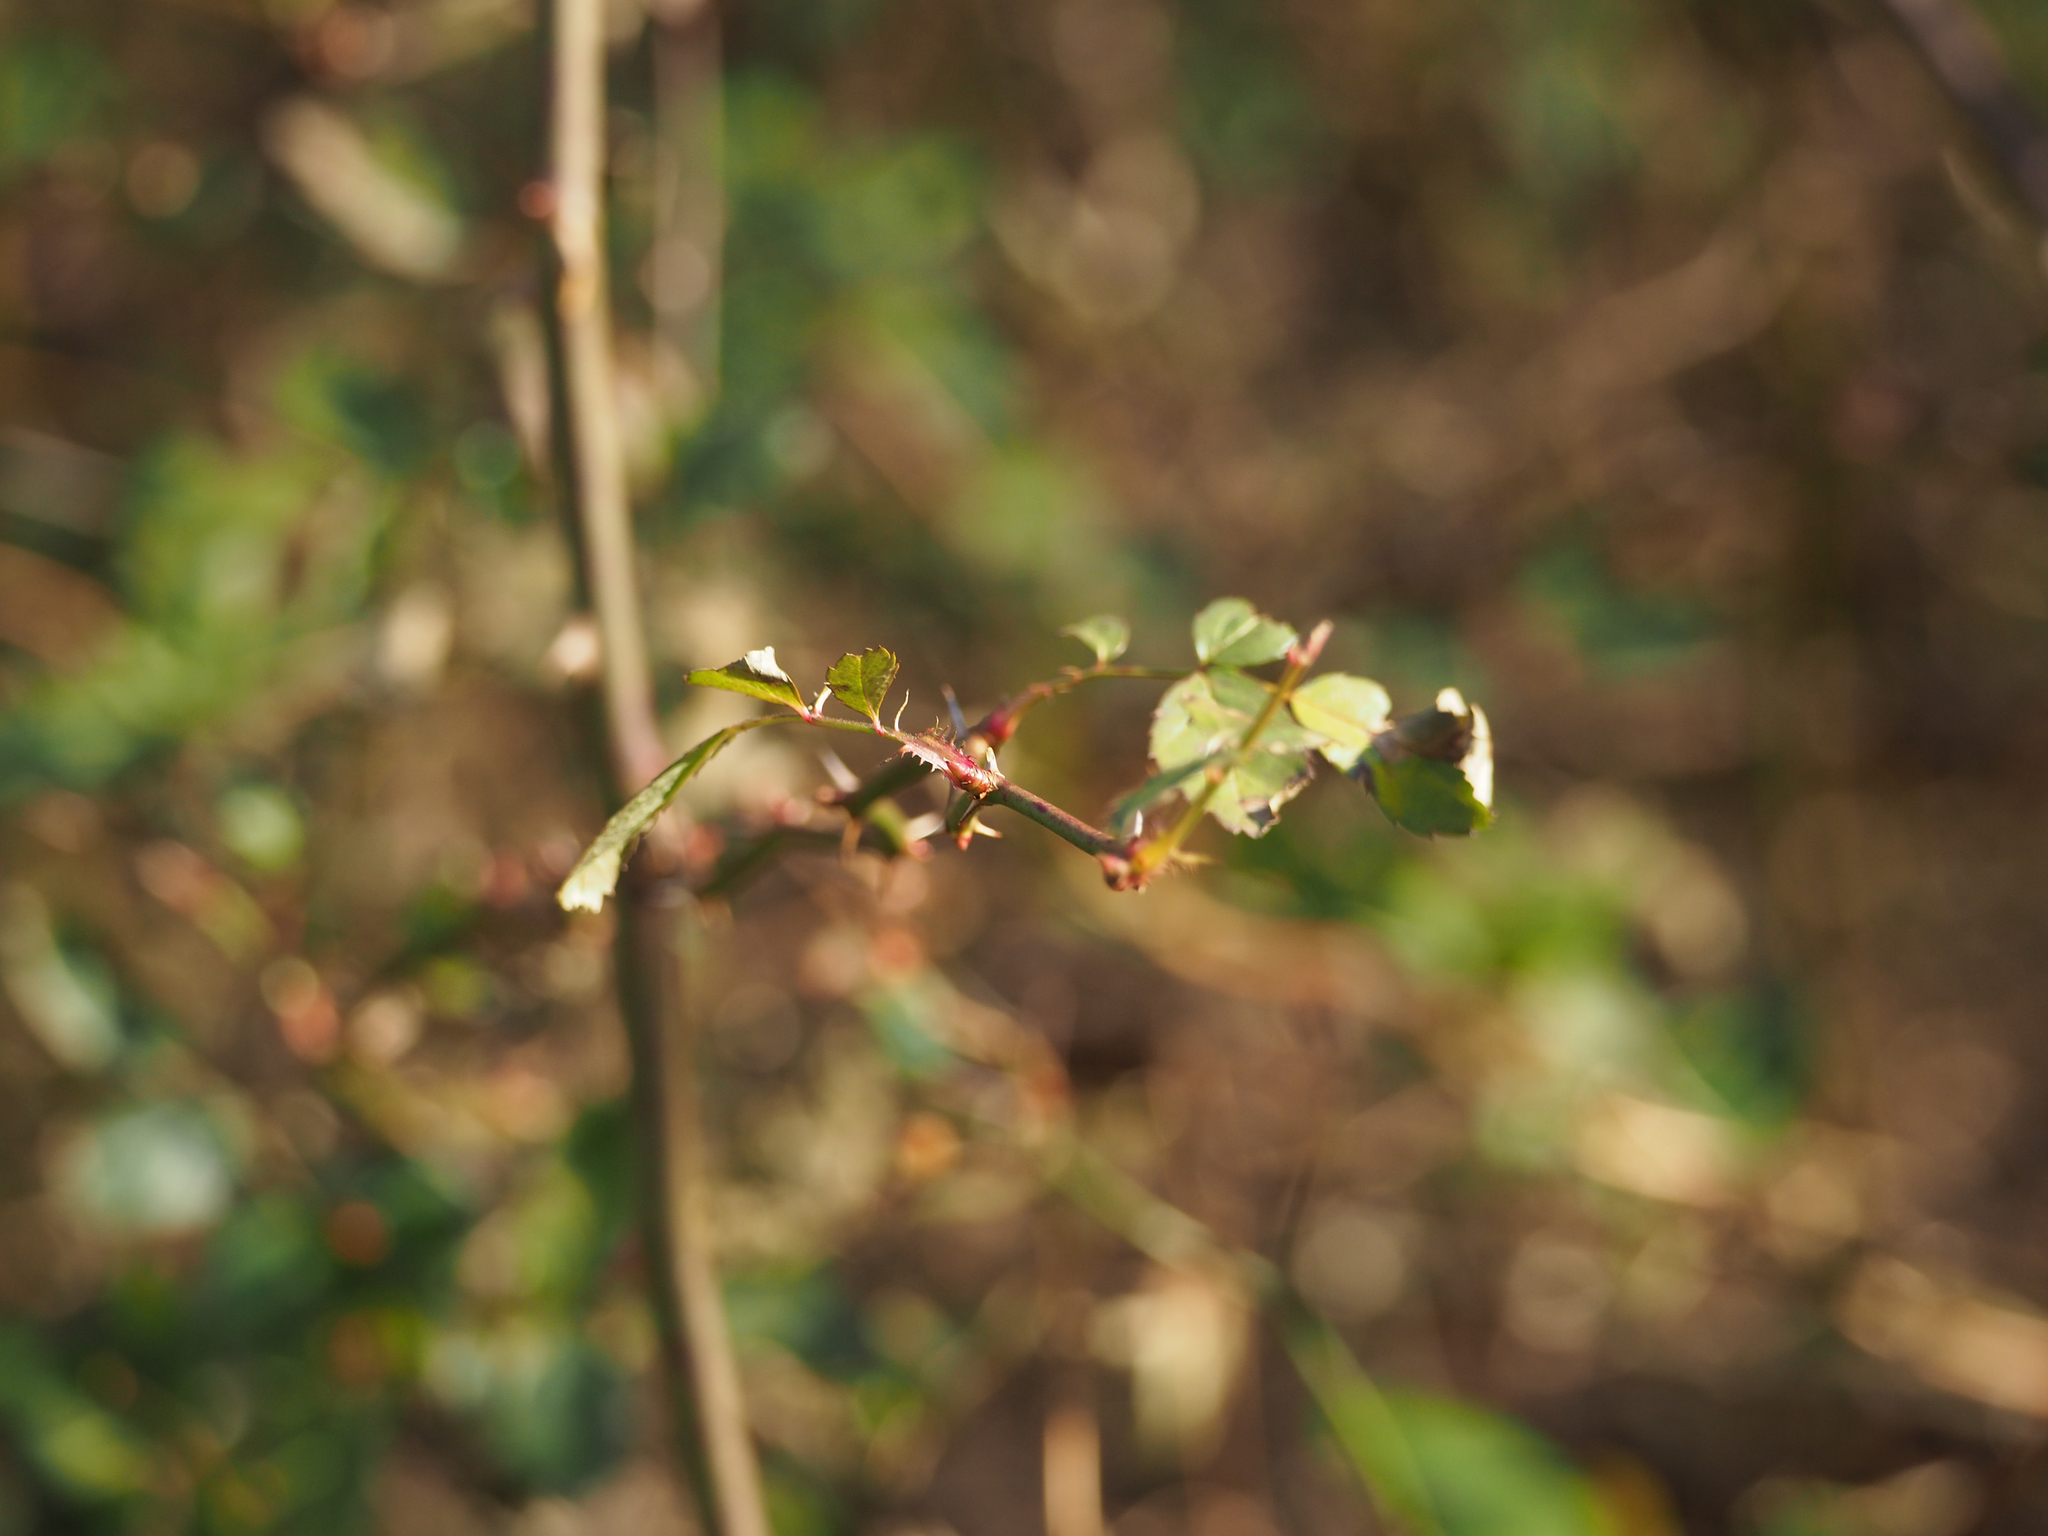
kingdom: Plantae
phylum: Tracheophyta
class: Magnoliopsida
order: Rosales
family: Rosaceae
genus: Rosa
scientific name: Rosa multiflora
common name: Multiflora rose
